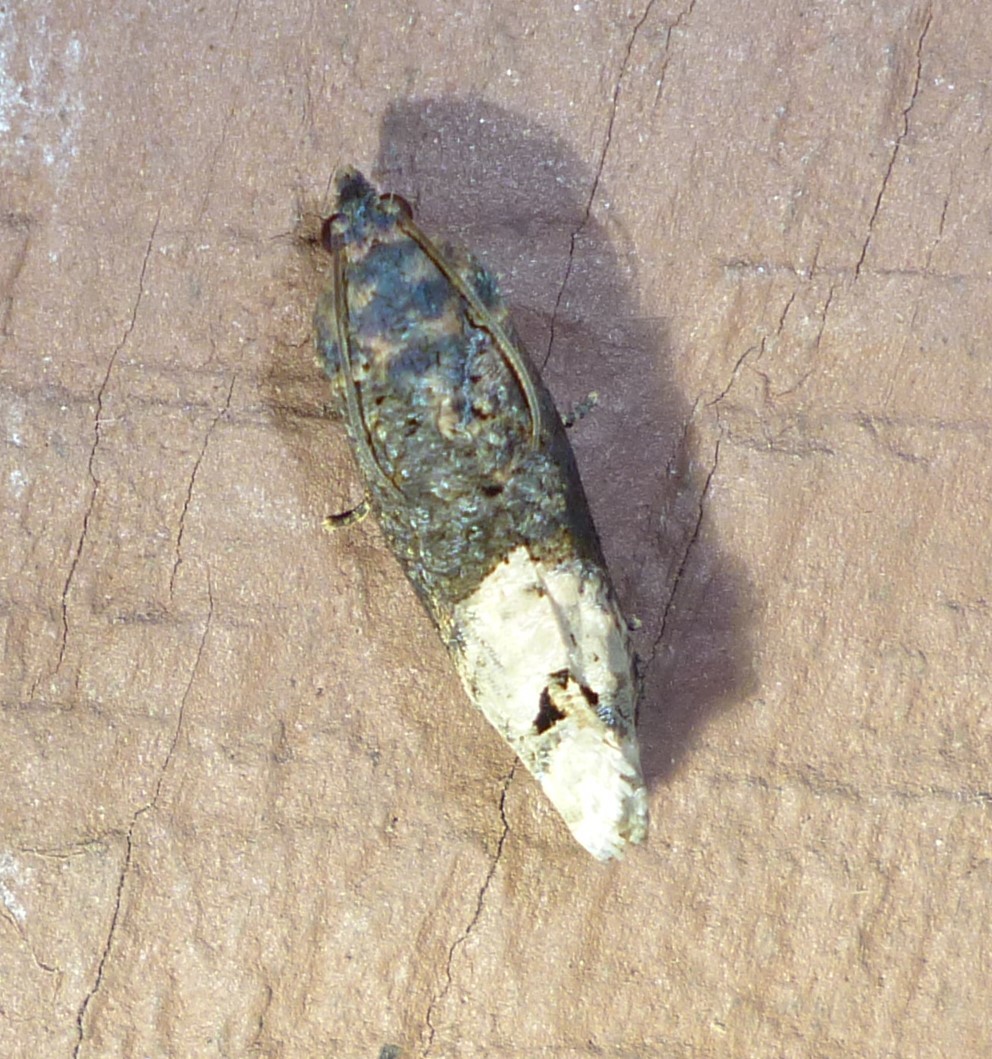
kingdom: Animalia
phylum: Arthropoda
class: Insecta
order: Lepidoptera
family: Tortricidae
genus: Ecdytolopha
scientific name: Ecdytolopha insiticiana
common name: Locust twig borer moth
